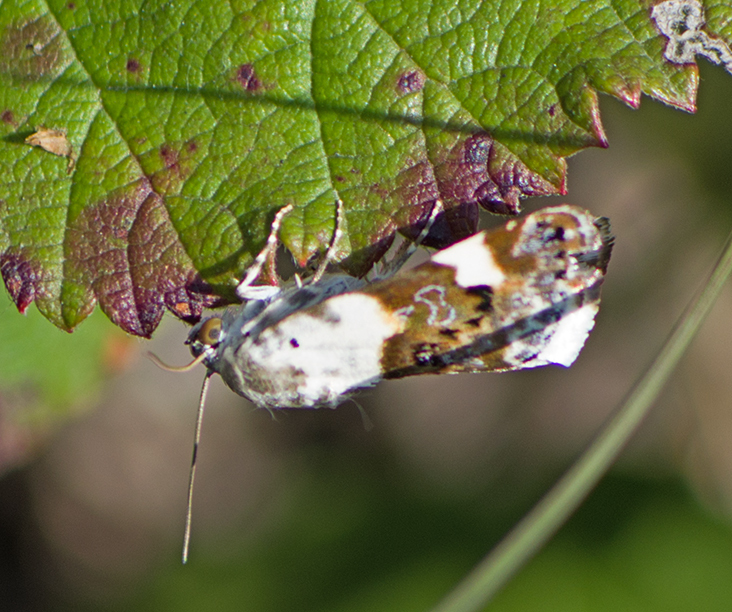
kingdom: Animalia
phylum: Arthropoda
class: Insecta
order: Lepidoptera
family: Noctuidae
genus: Acontia
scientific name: Acontia lucida
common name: Pale shoulder
